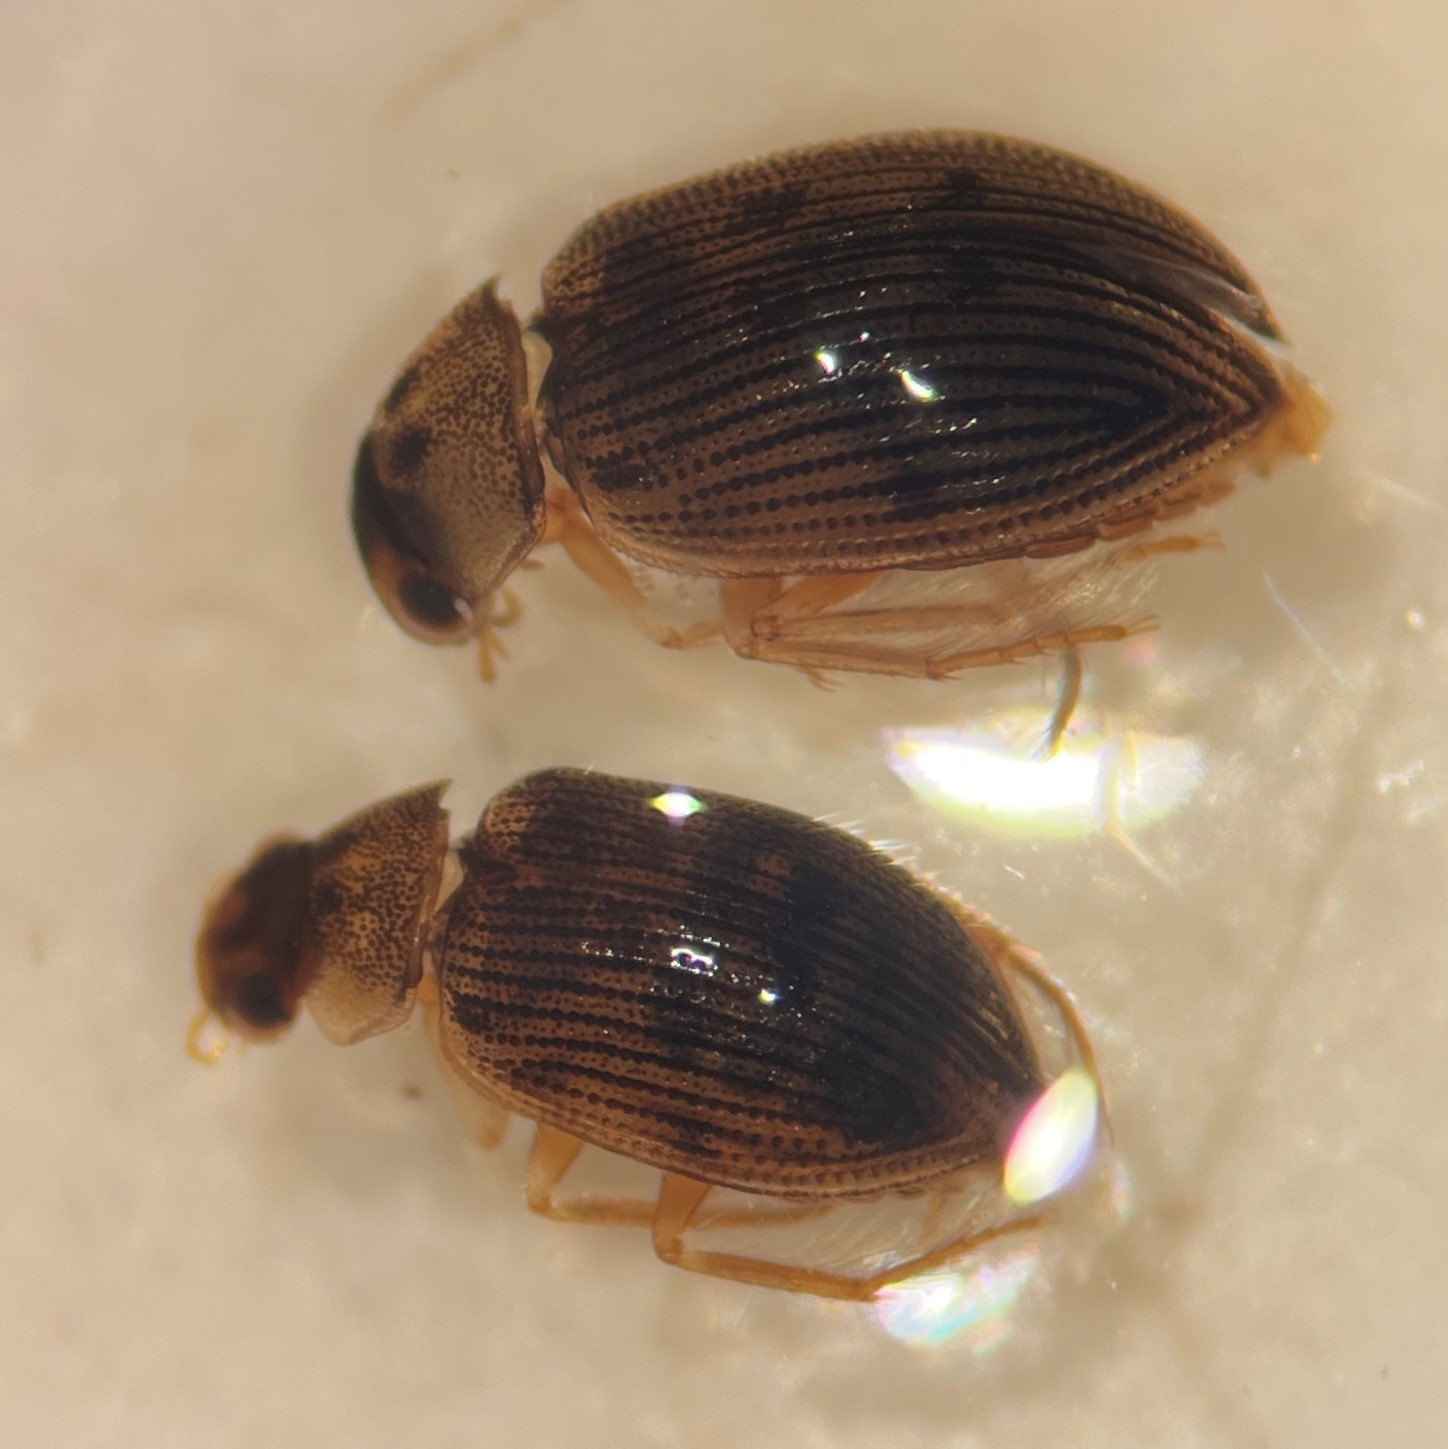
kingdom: Animalia
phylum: Arthropoda
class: Insecta
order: Coleoptera
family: Hydrophilidae
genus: Berosus
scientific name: Berosus exiguus
